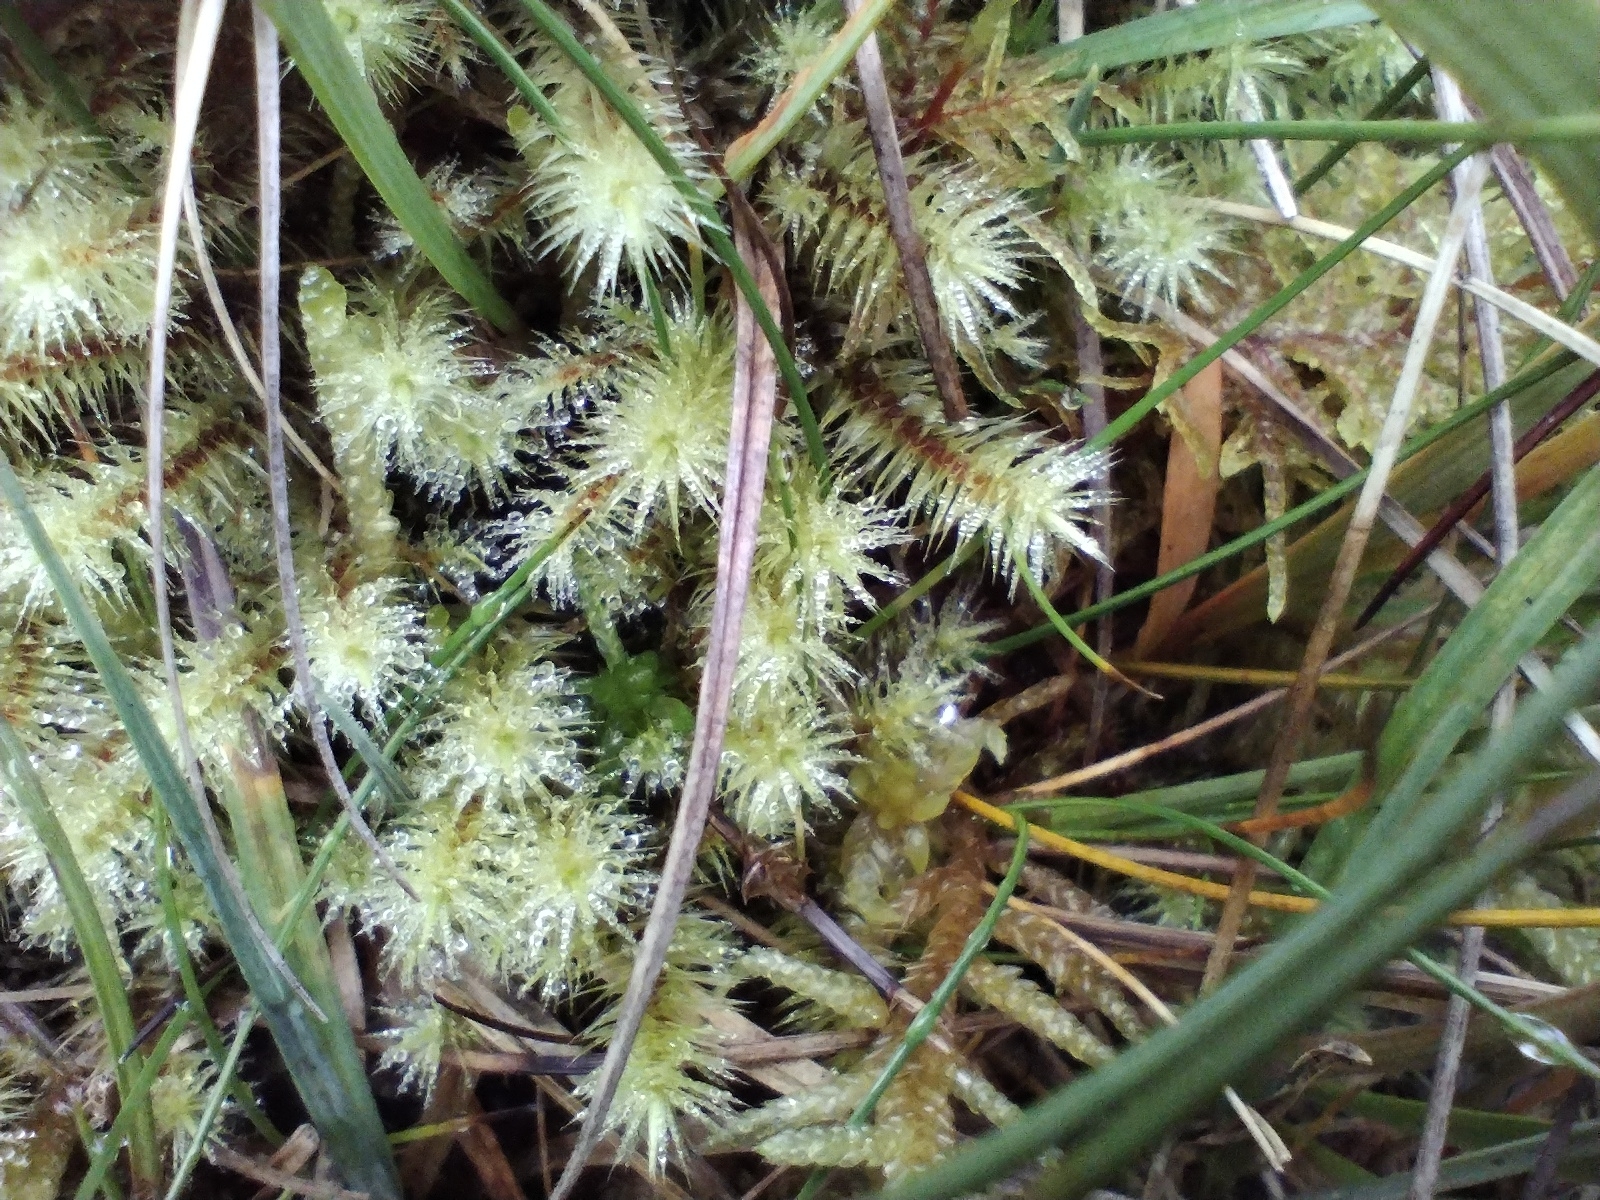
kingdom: Plantae
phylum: Bryophyta
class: Bryopsida
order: Bartramiales
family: Bartramiaceae
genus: Breutelia
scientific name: Breutelia chrysocoma
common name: Bottle-brush moss
